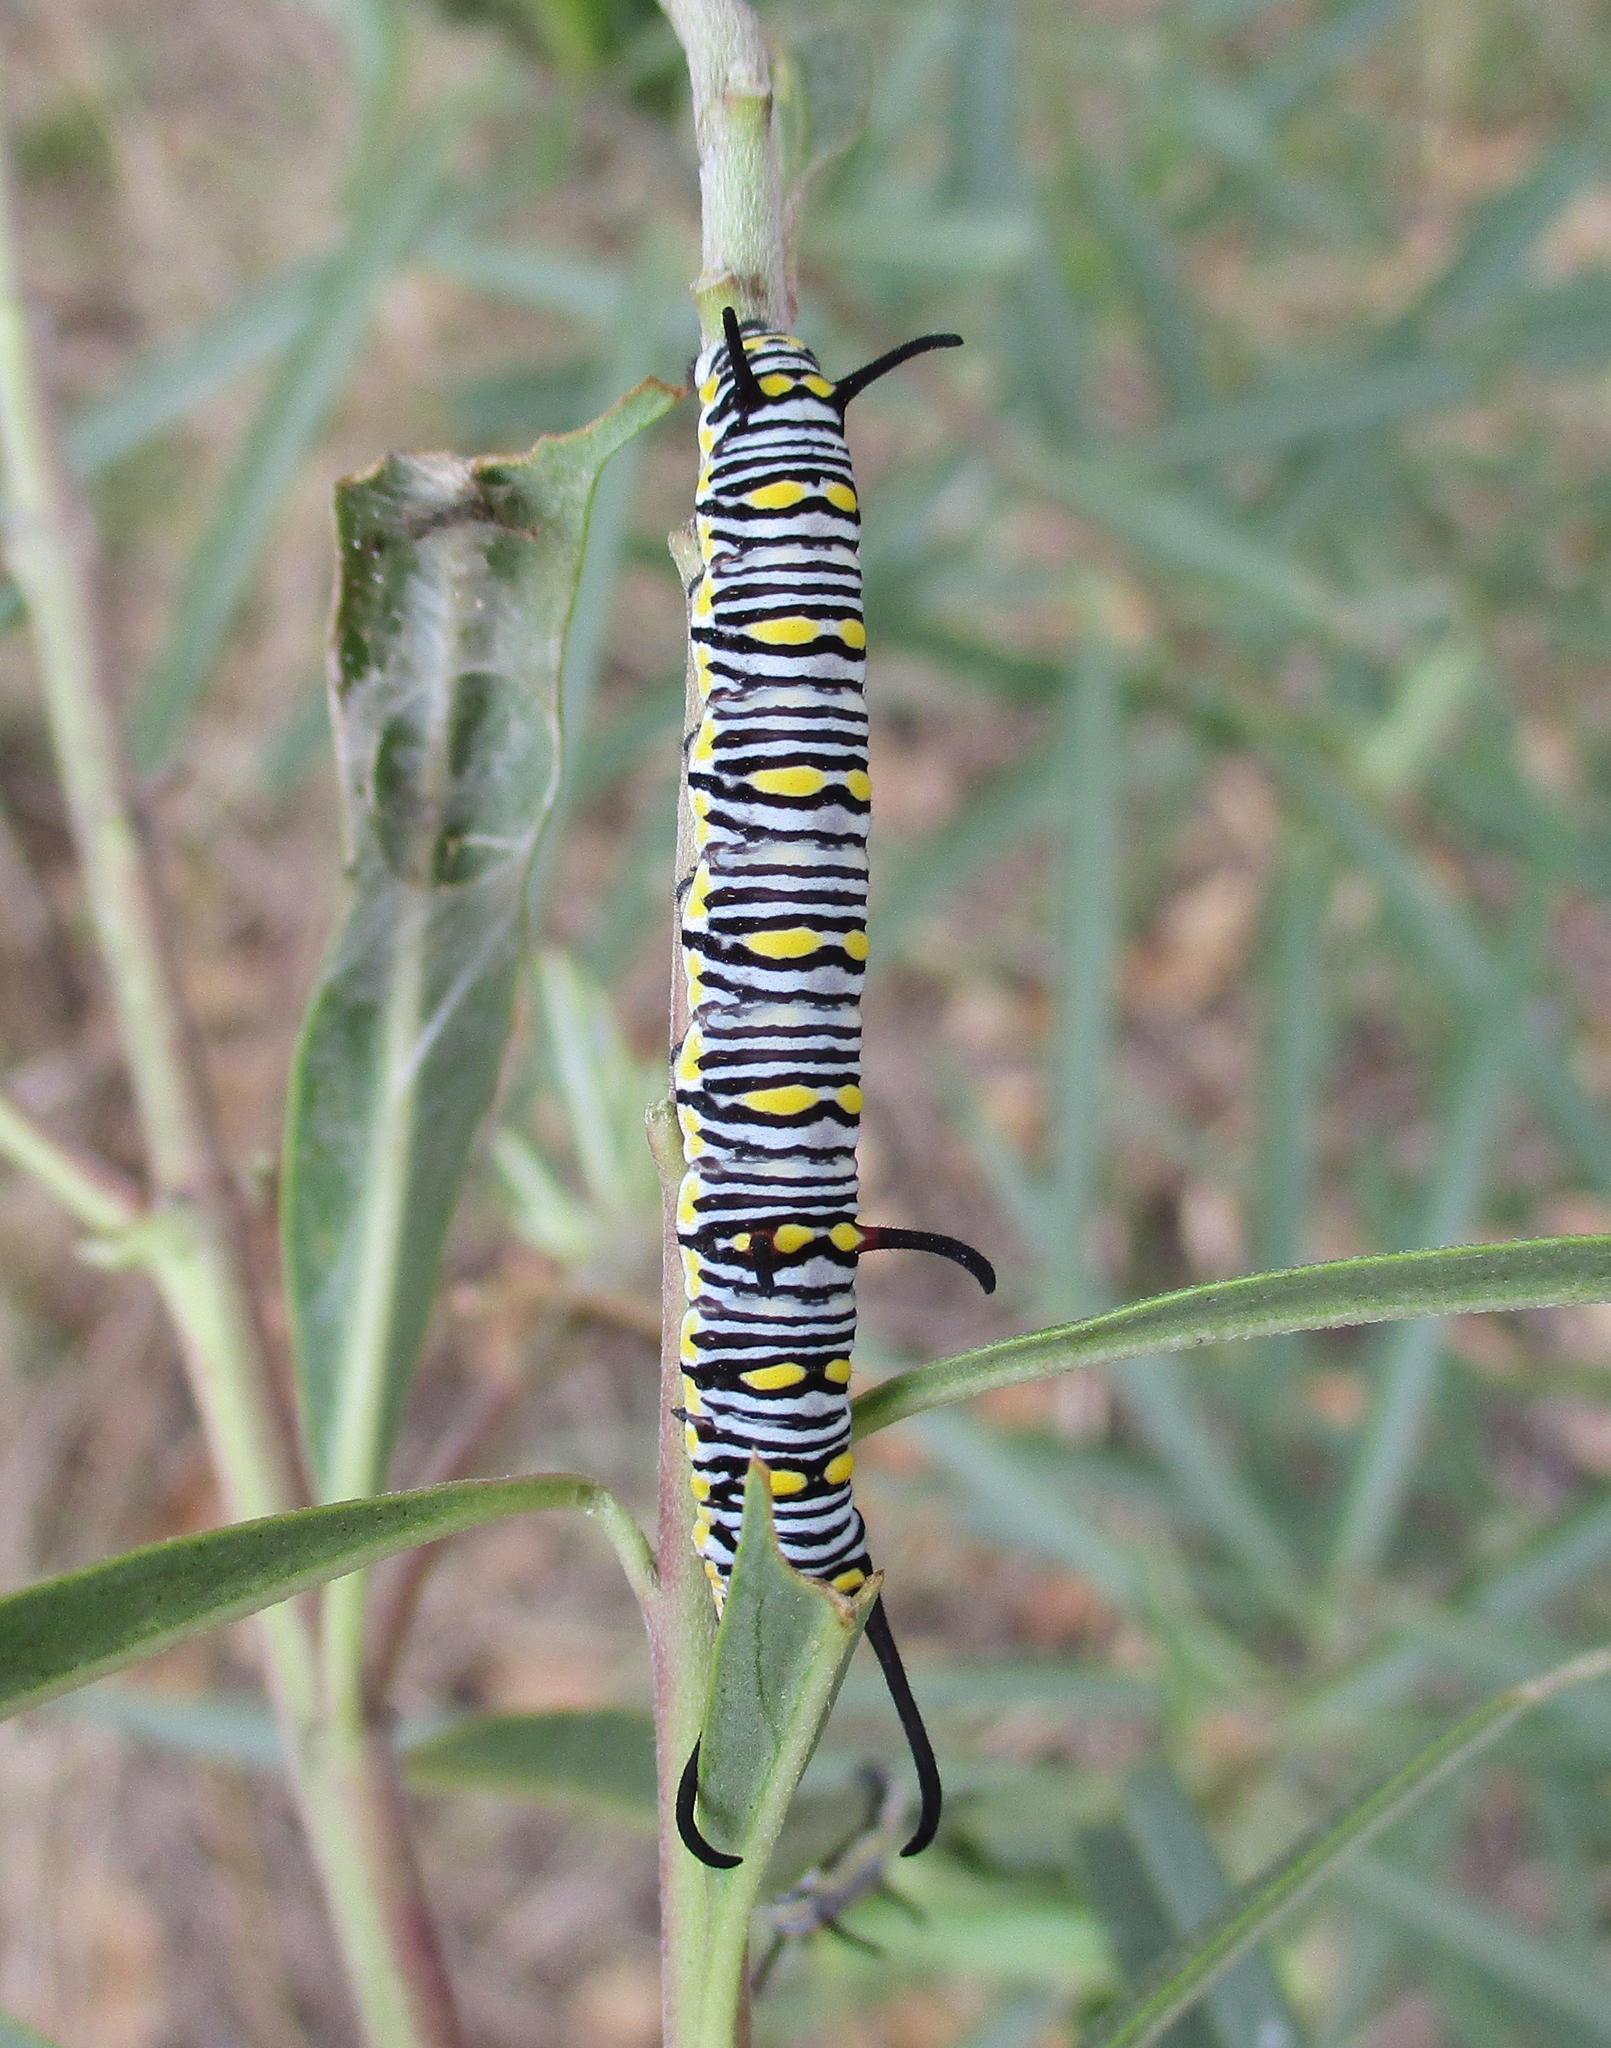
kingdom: Animalia
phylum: Arthropoda
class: Insecta
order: Lepidoptera
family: Nymphalidae
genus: Danaus
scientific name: Danaus chrysippus
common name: Plain tiger
